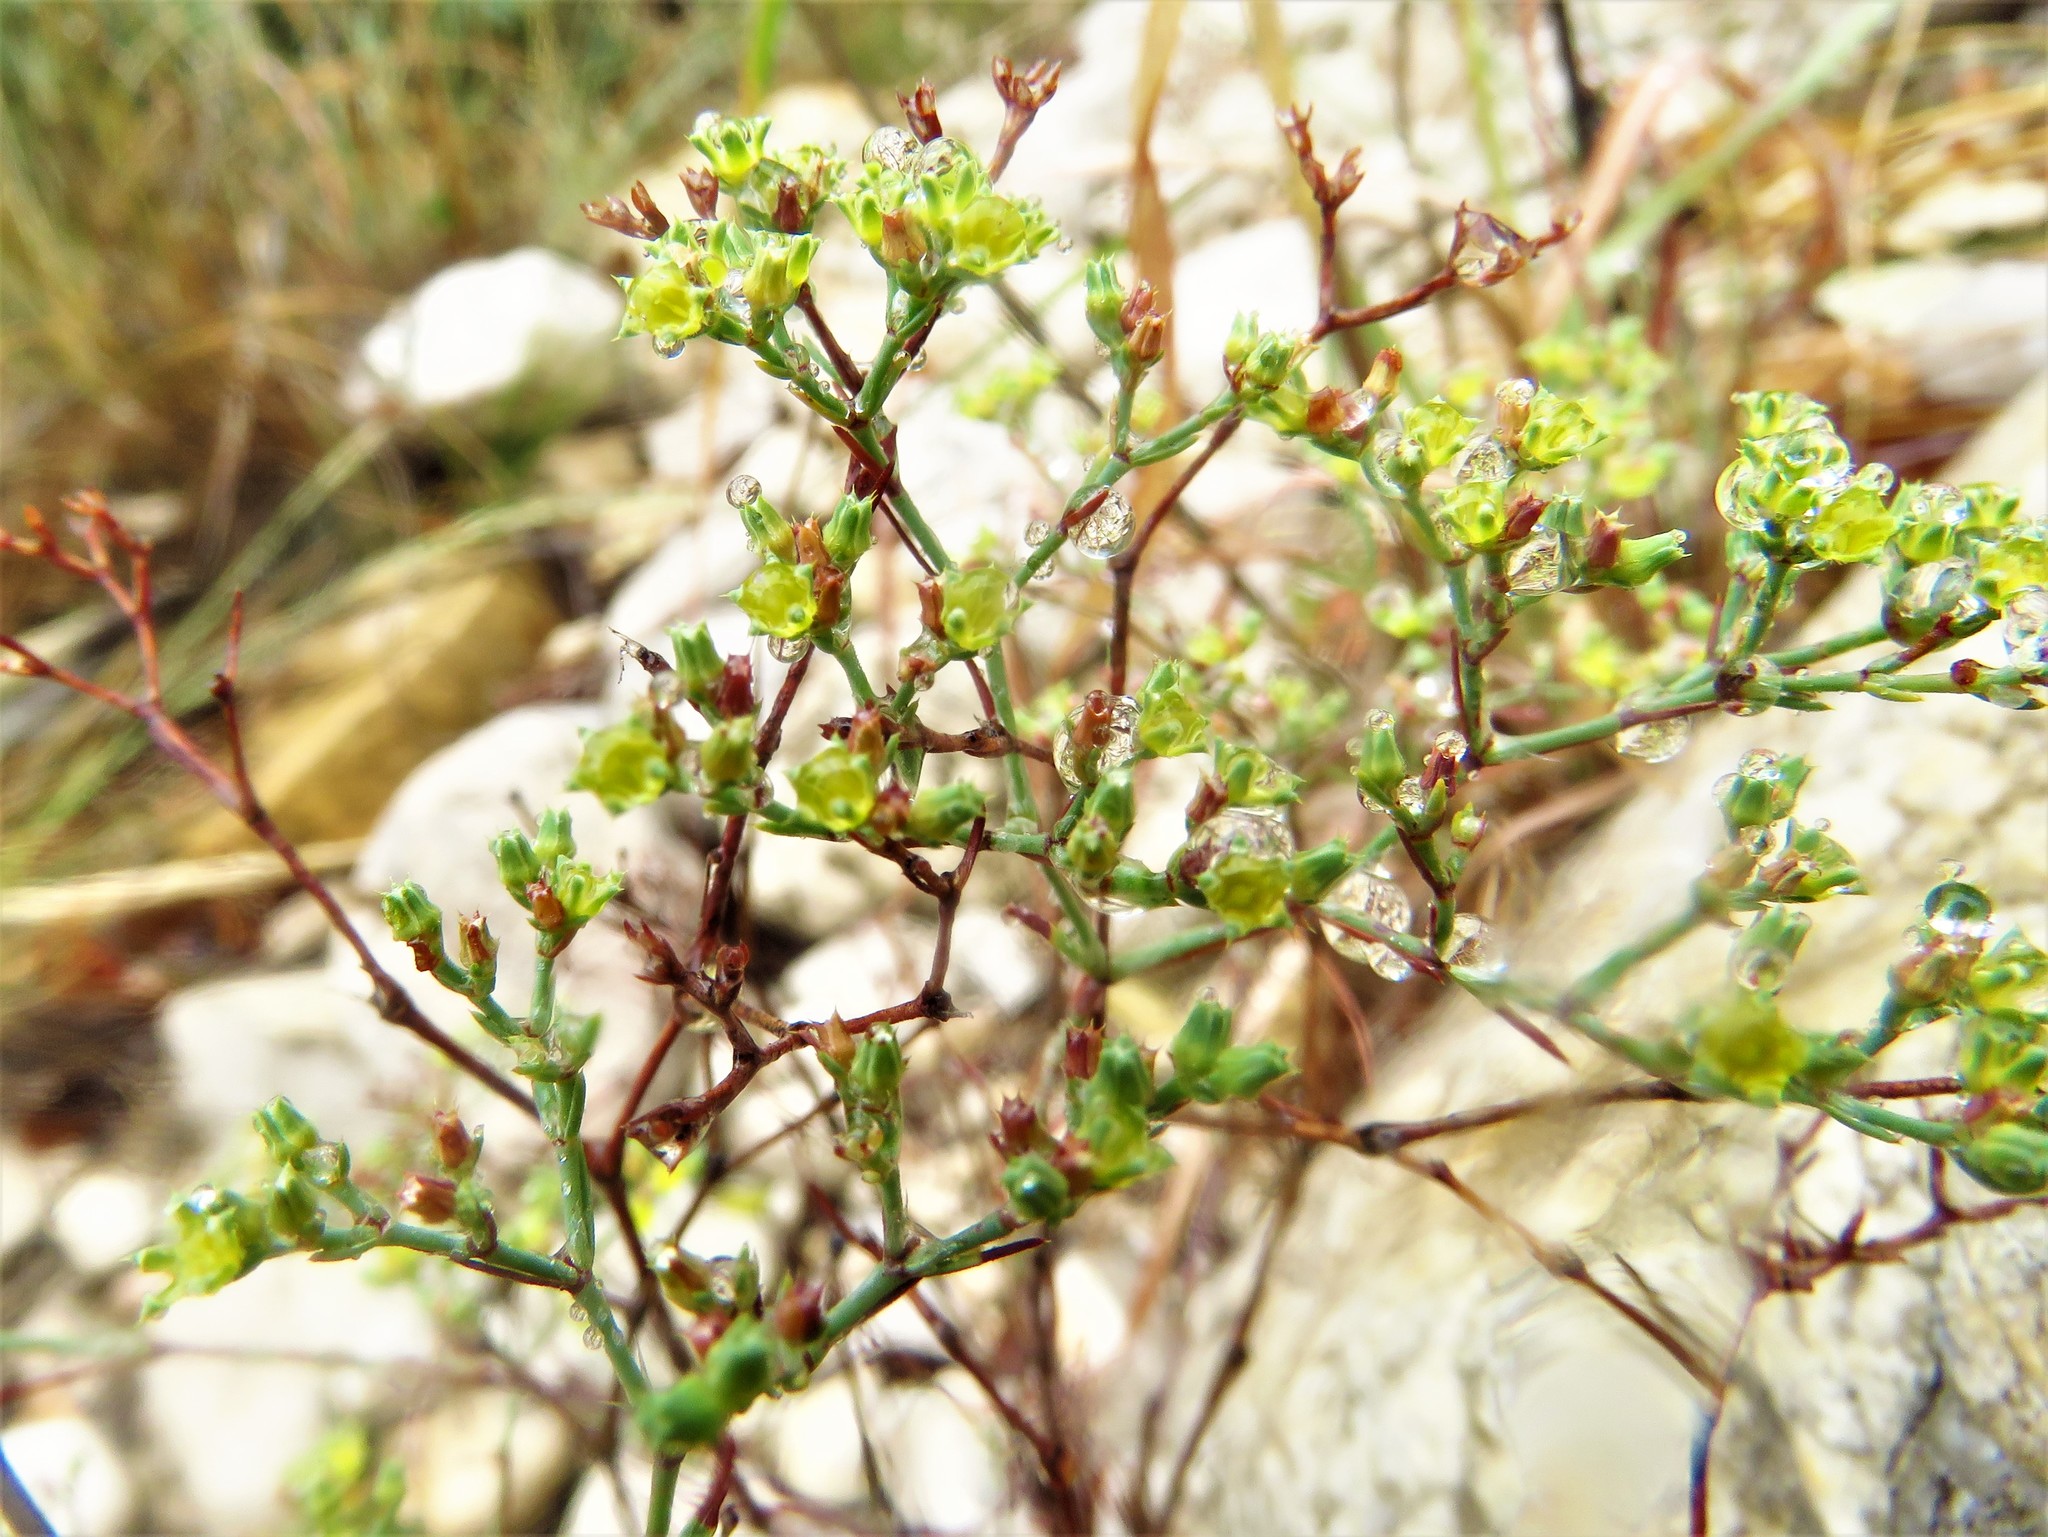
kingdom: Plantae
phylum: Tracheophyta
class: Magnoliopsida
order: Caryophyllales
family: Caryophyllaceae
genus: Paronychia
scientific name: Paronychia jamesii
